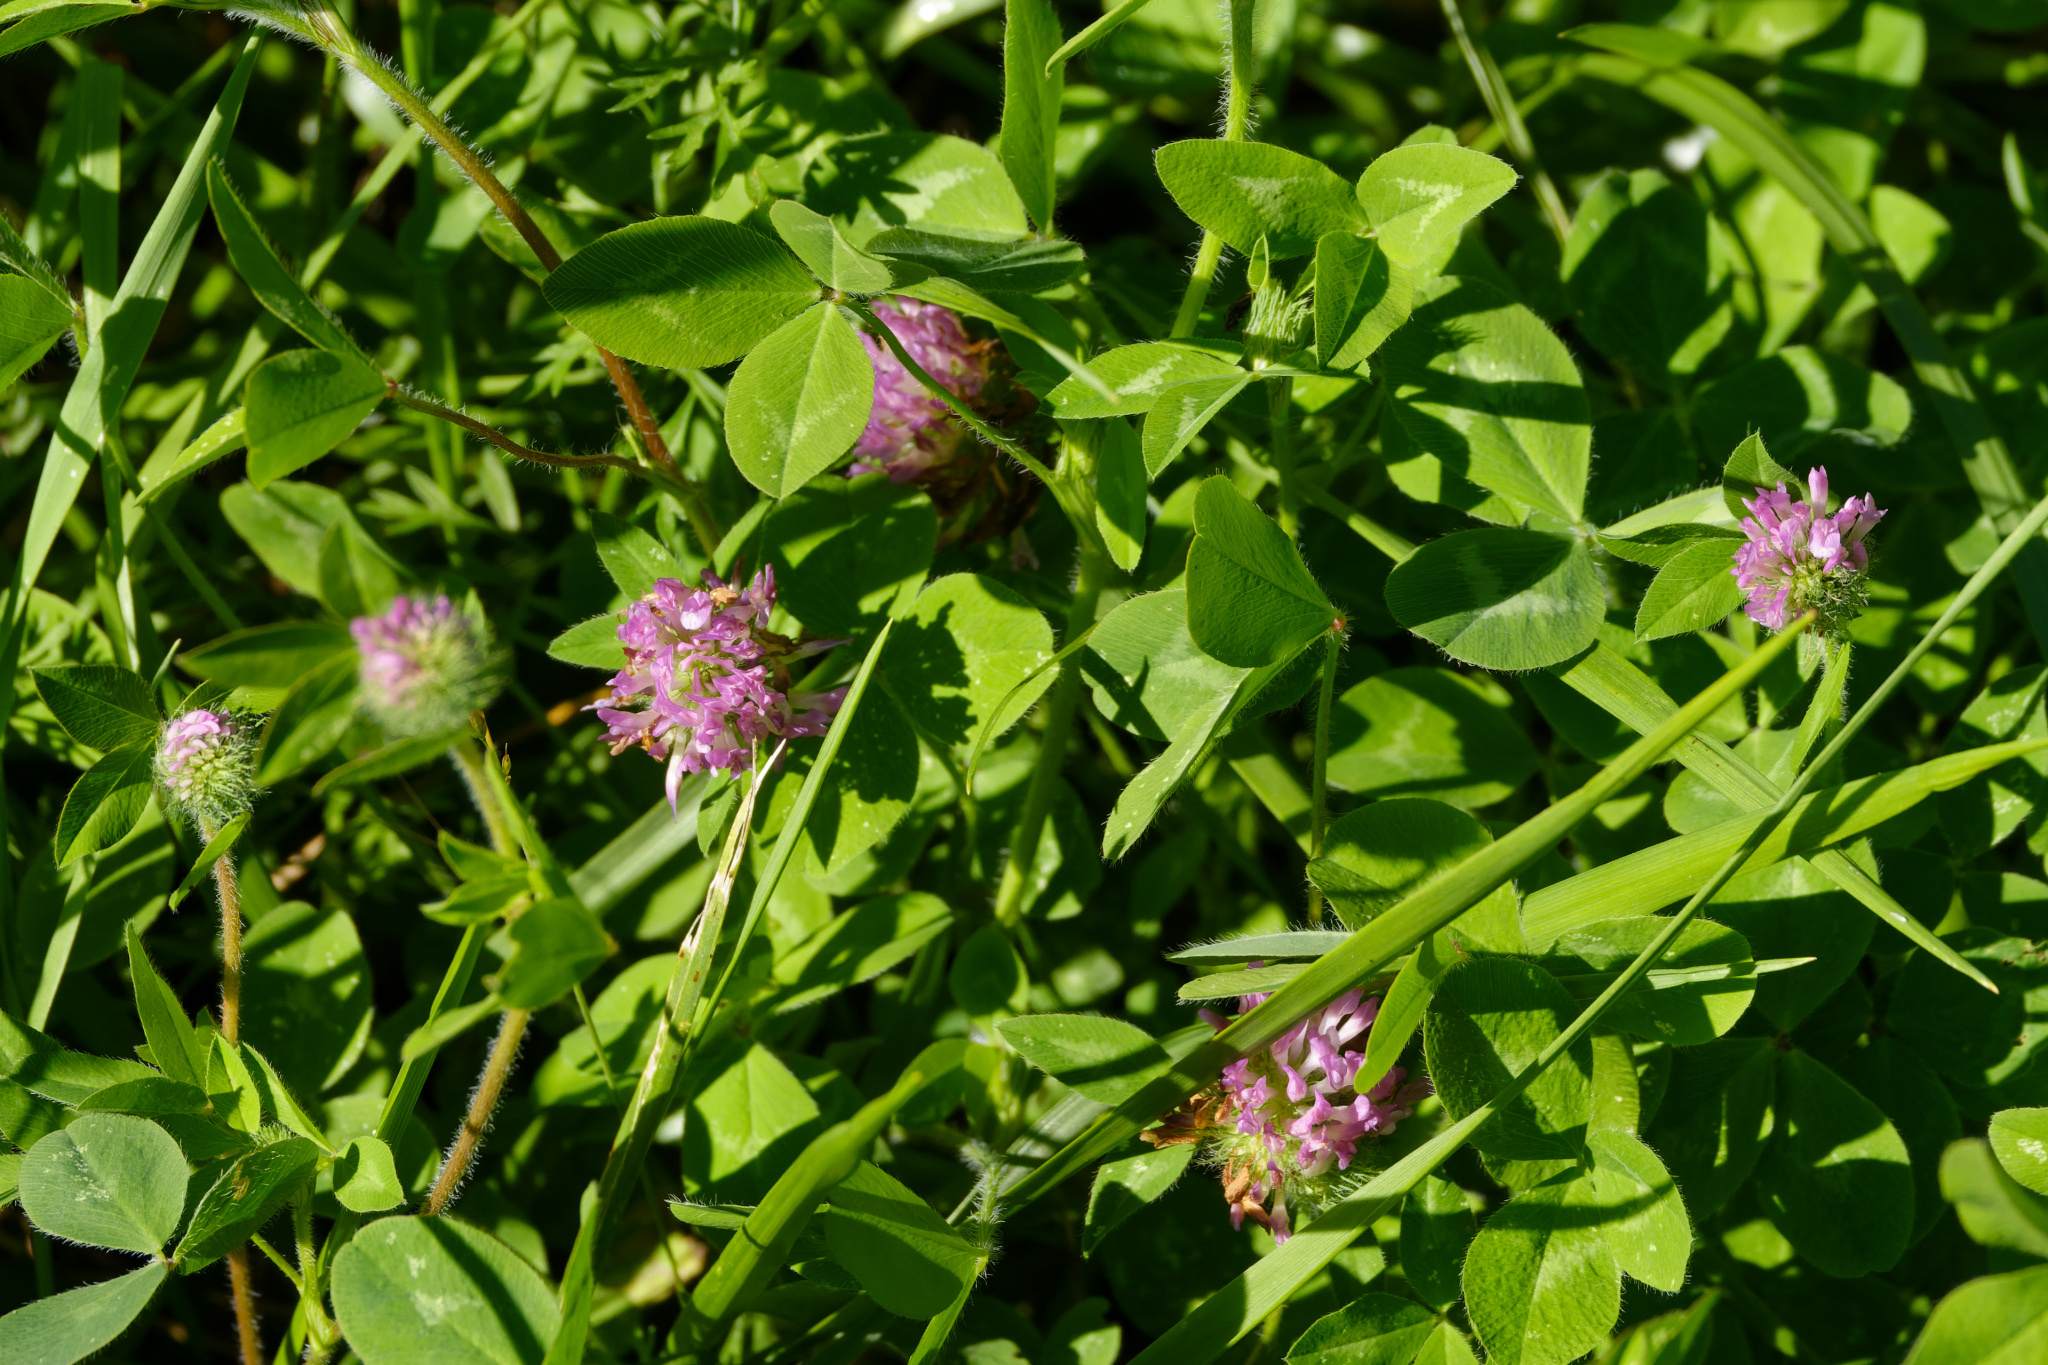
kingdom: Plantae
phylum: Tracheophyta
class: Magnoliopsida
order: Fabales
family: Fabaceae
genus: Trifolium
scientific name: Trifolium pratense
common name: Red clover
